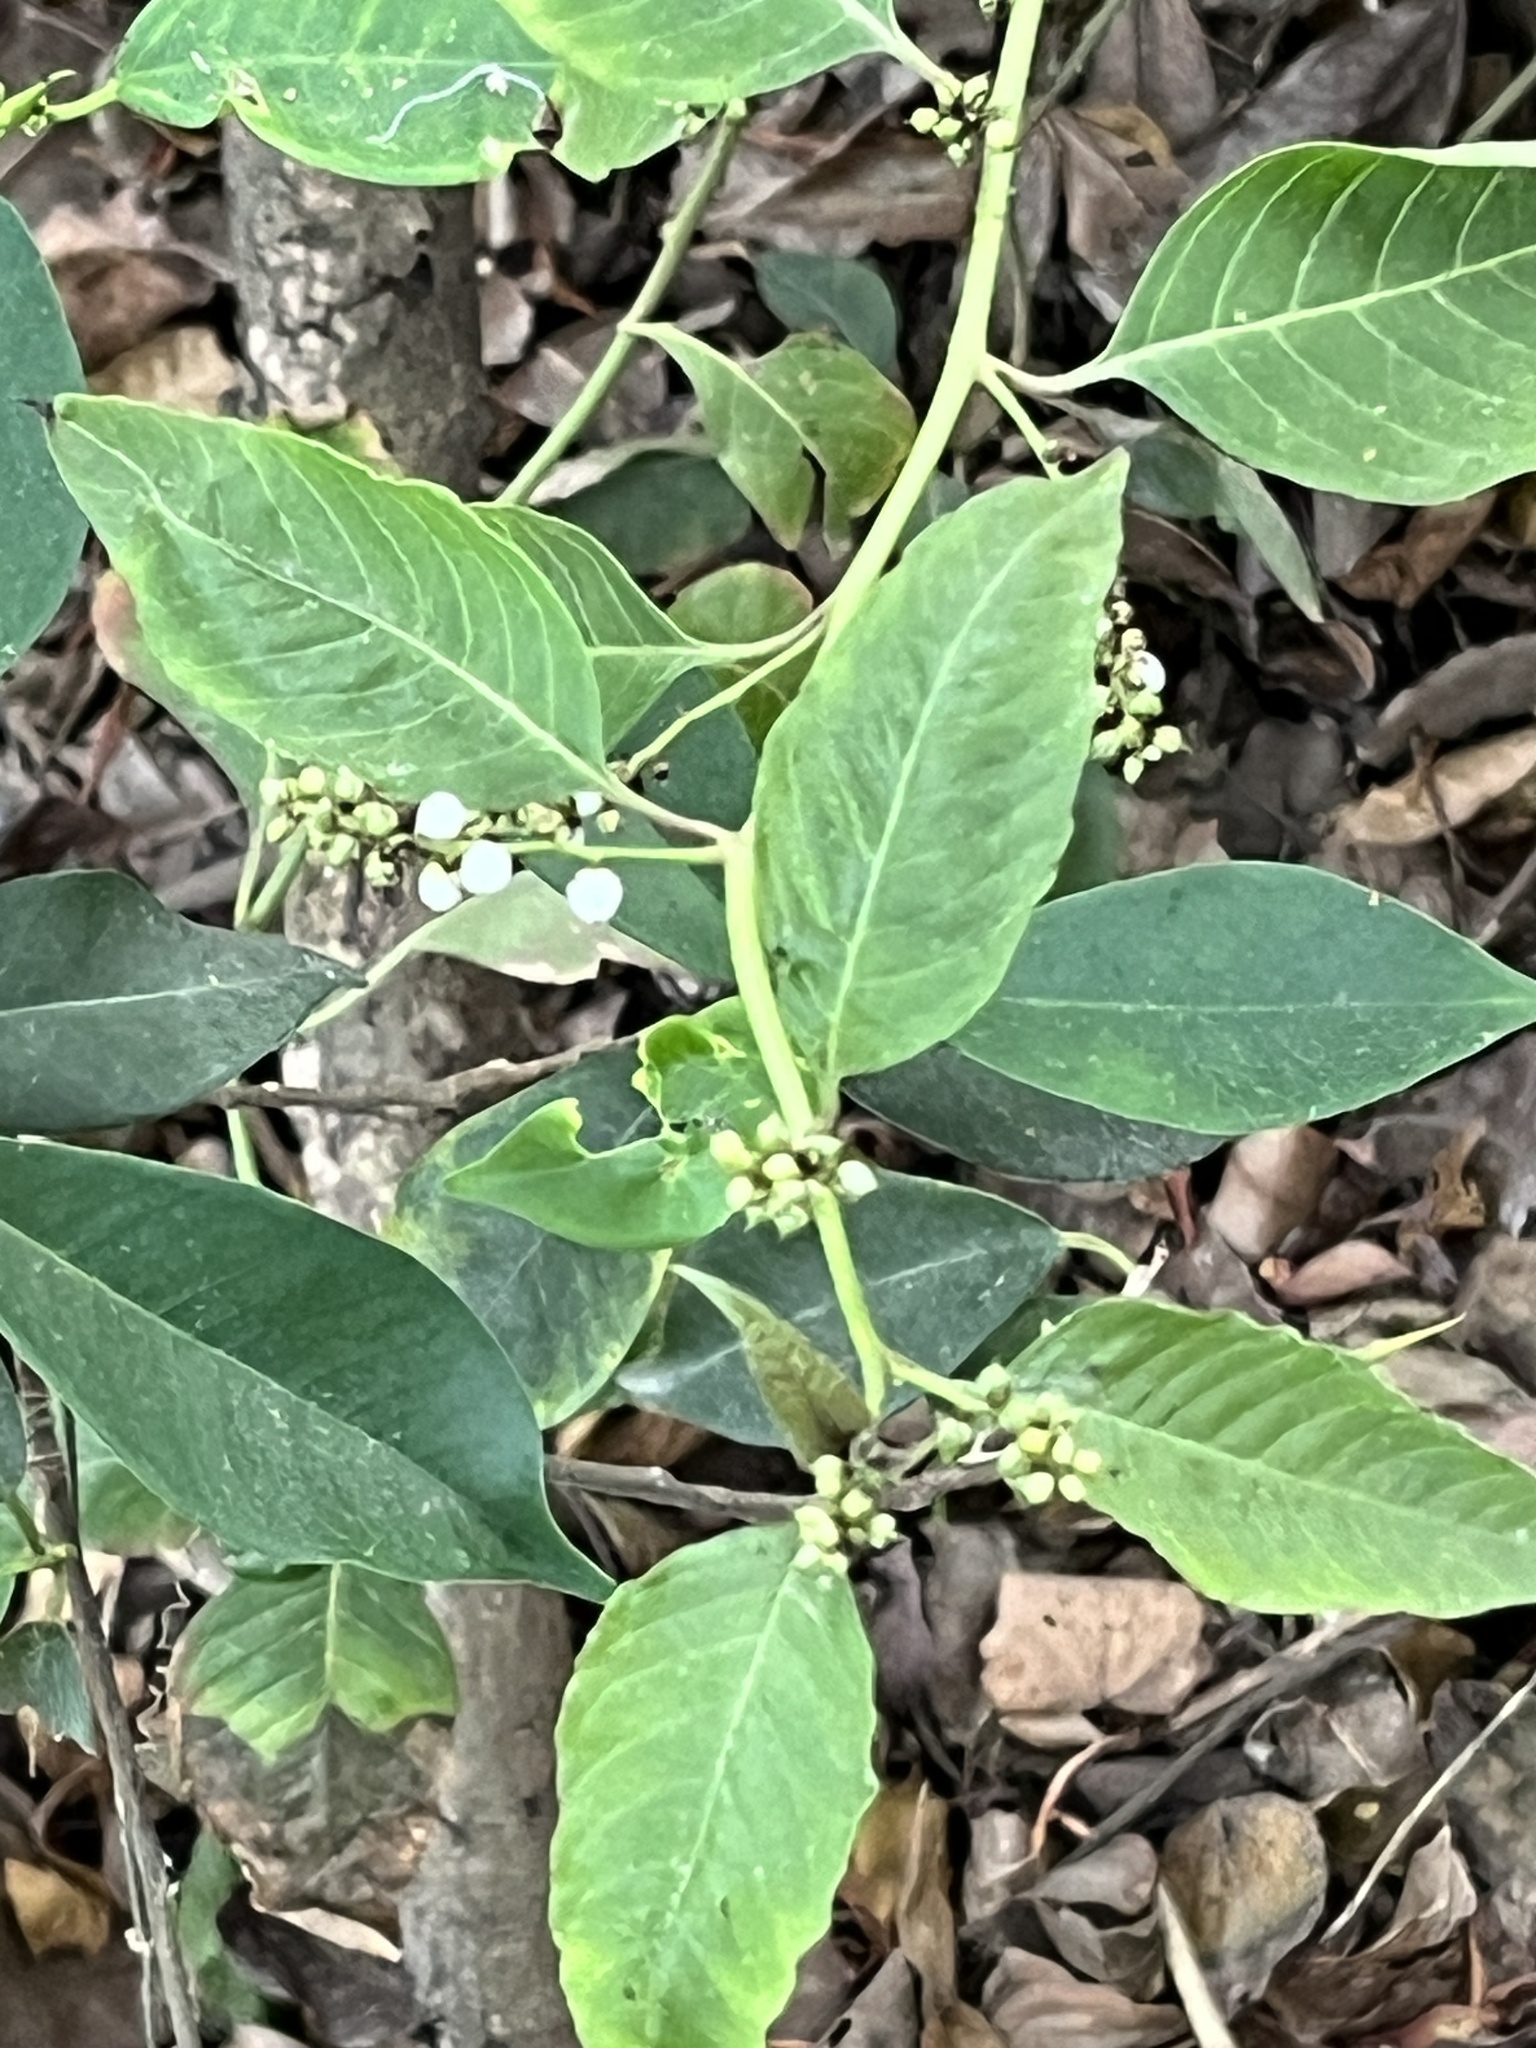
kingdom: Plantae
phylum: Tracheophyta
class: Magnoliopsida
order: Caryophyllales
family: Amaranthaceae
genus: Deeringia
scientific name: Deeringia polysperma
